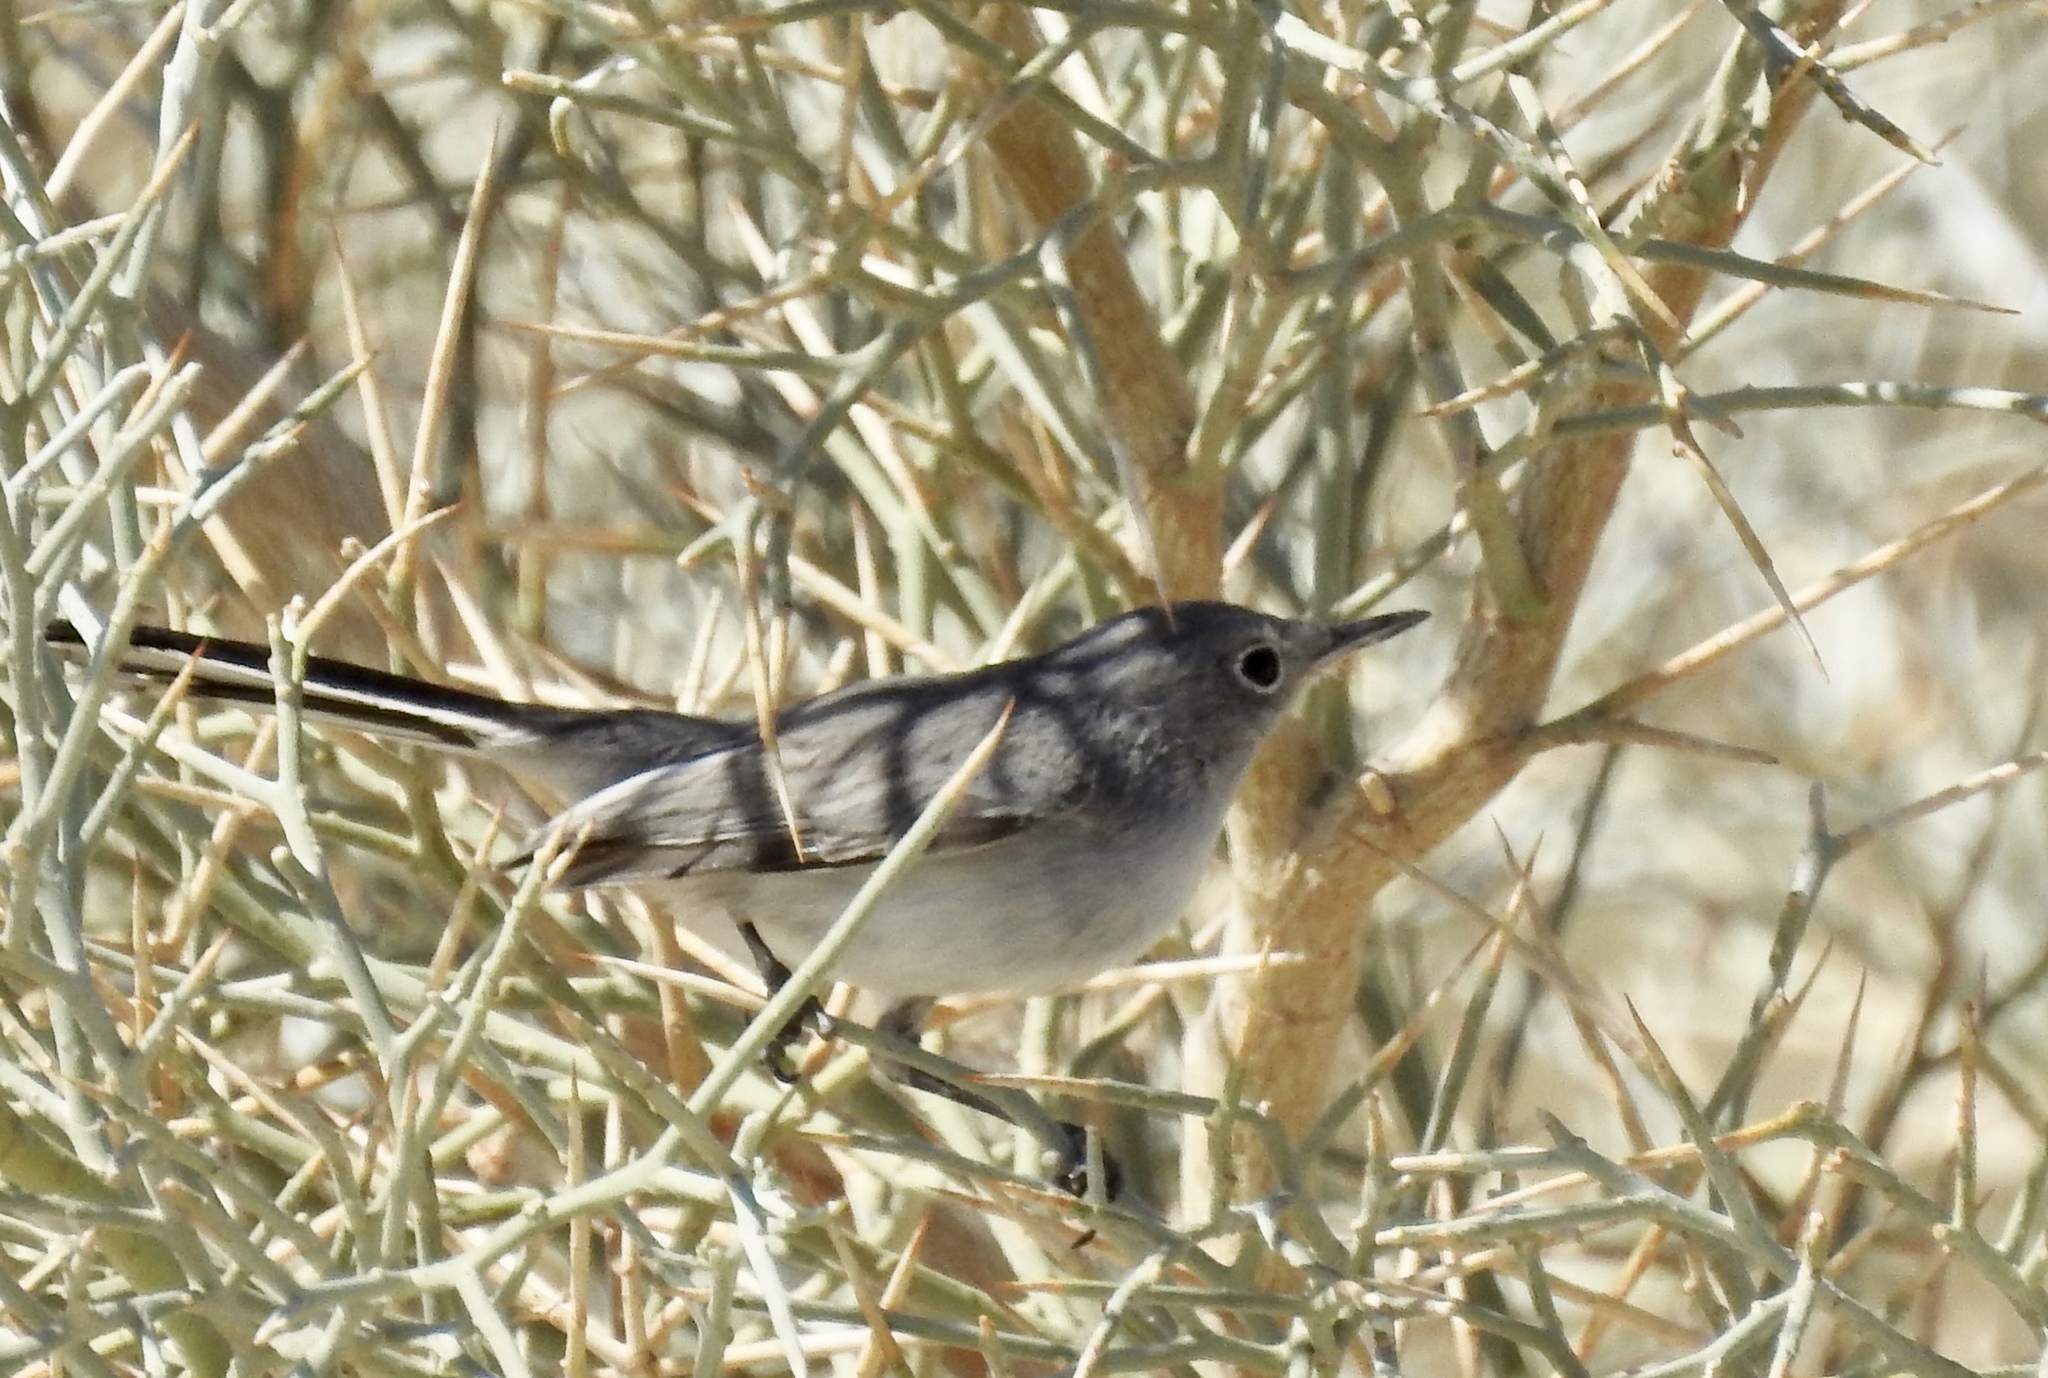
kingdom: Animalia
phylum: Chordata
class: Aves
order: Passeriformes
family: Polioptilidae
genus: Polioptila
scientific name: Polioptila melanura
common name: Black-tailed gnatcatcher
